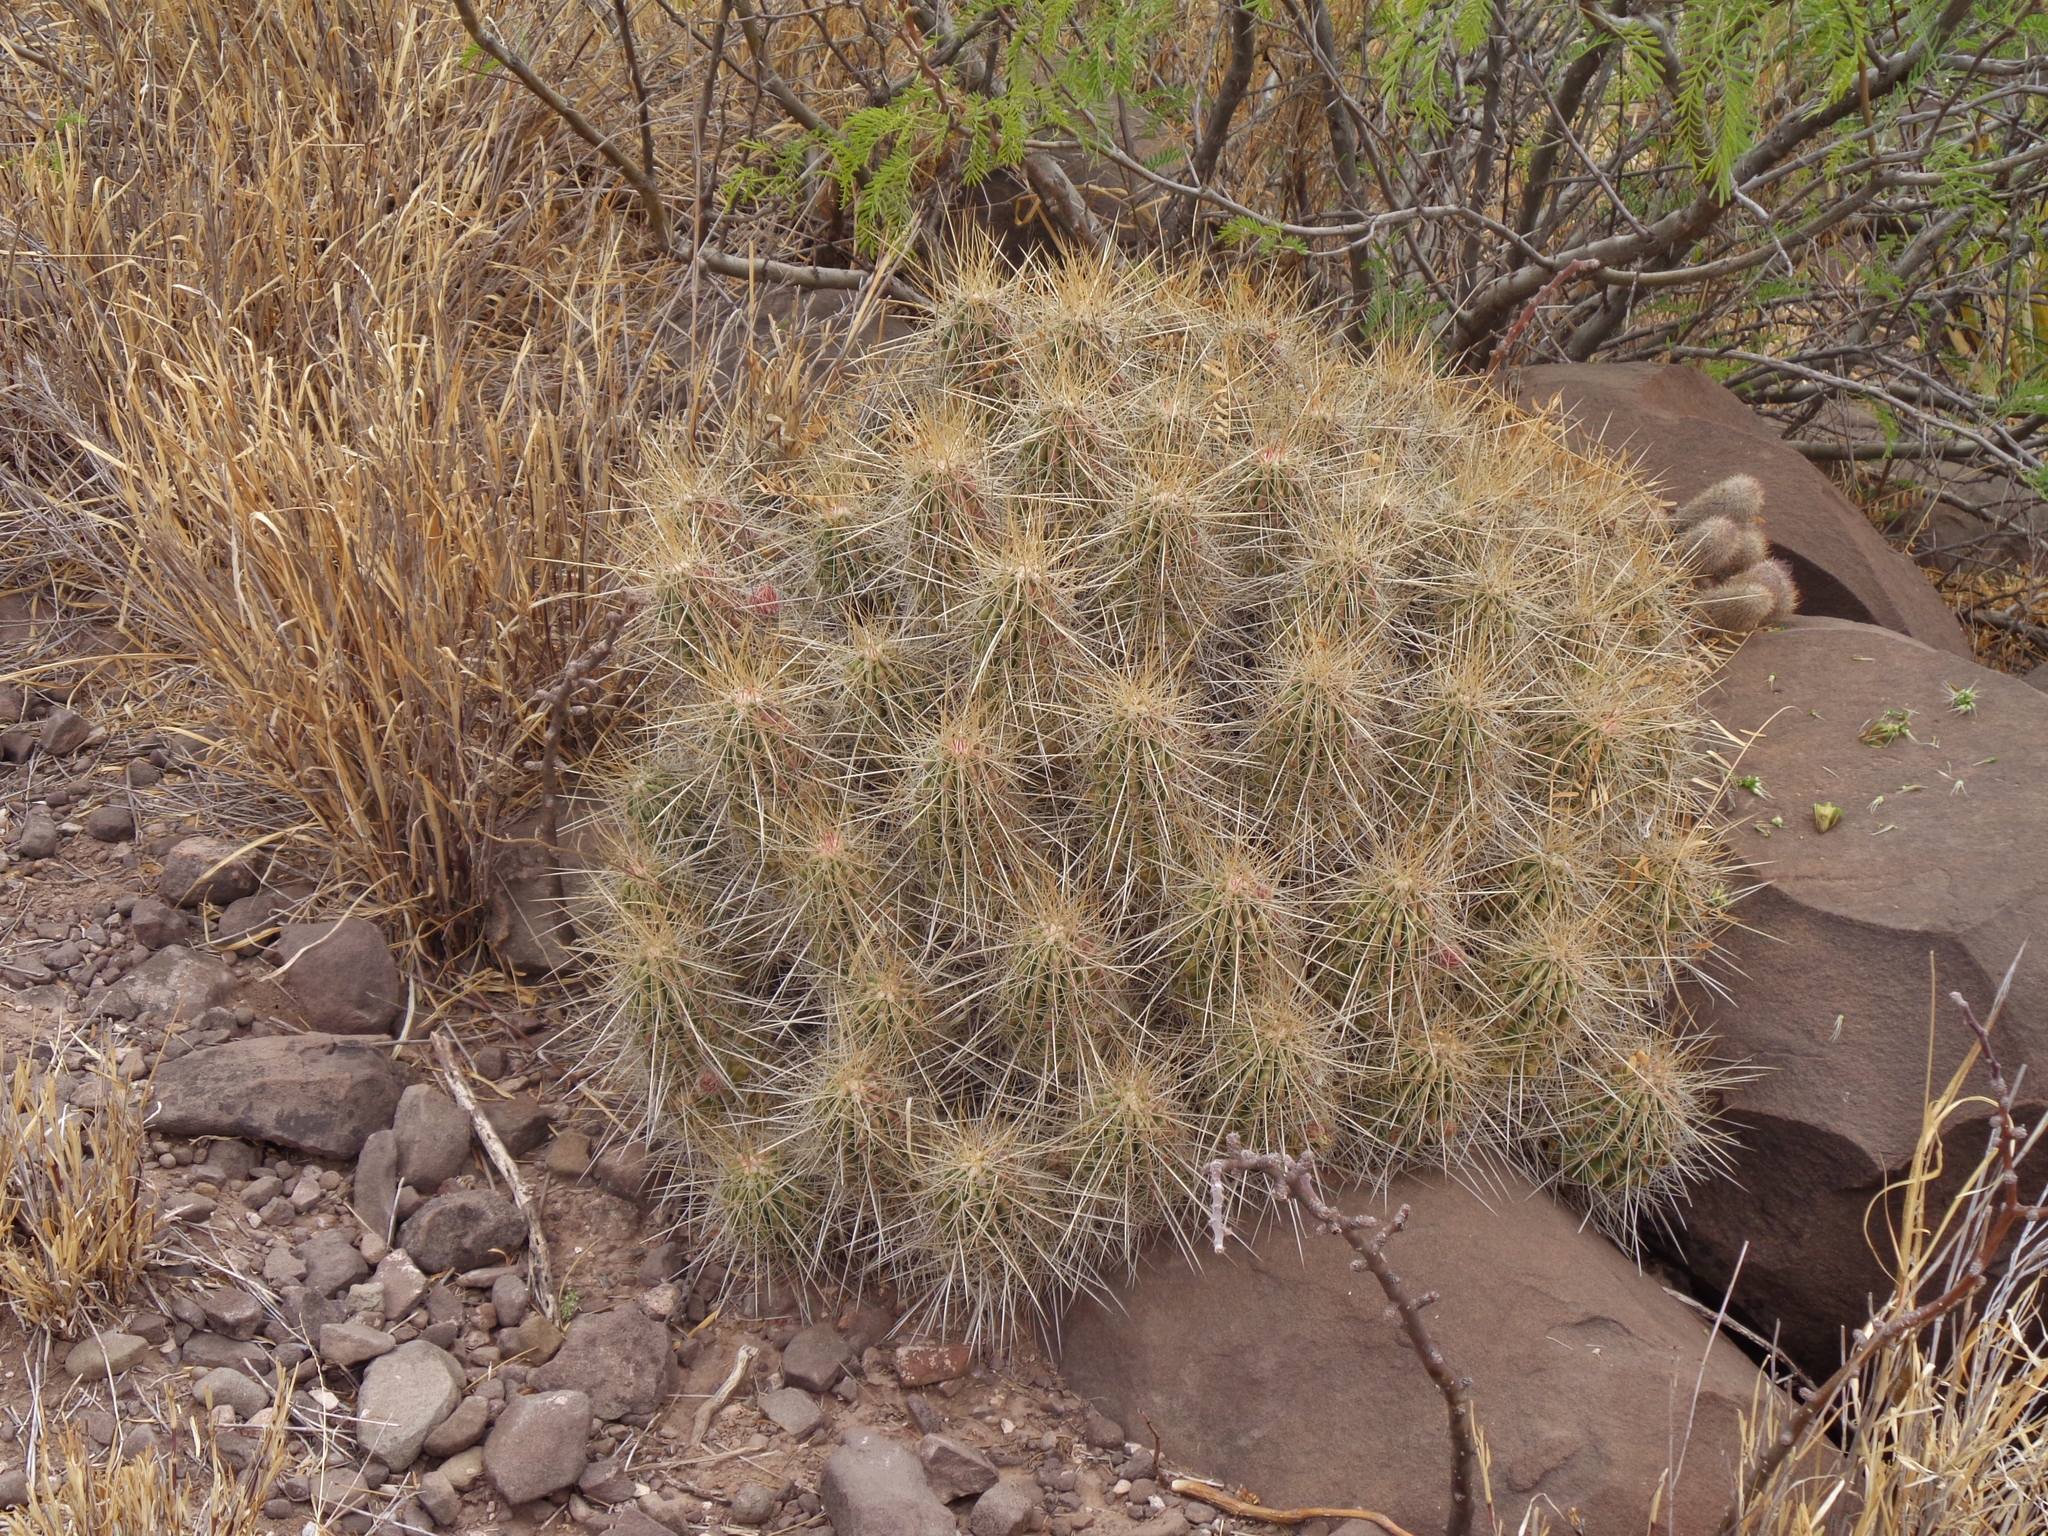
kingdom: Plantae
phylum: Tracheophyta
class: Magnoliopsida
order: Caryophyllales
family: Cactaceae
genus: Echinocereus
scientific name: Echinocereus stramineus
